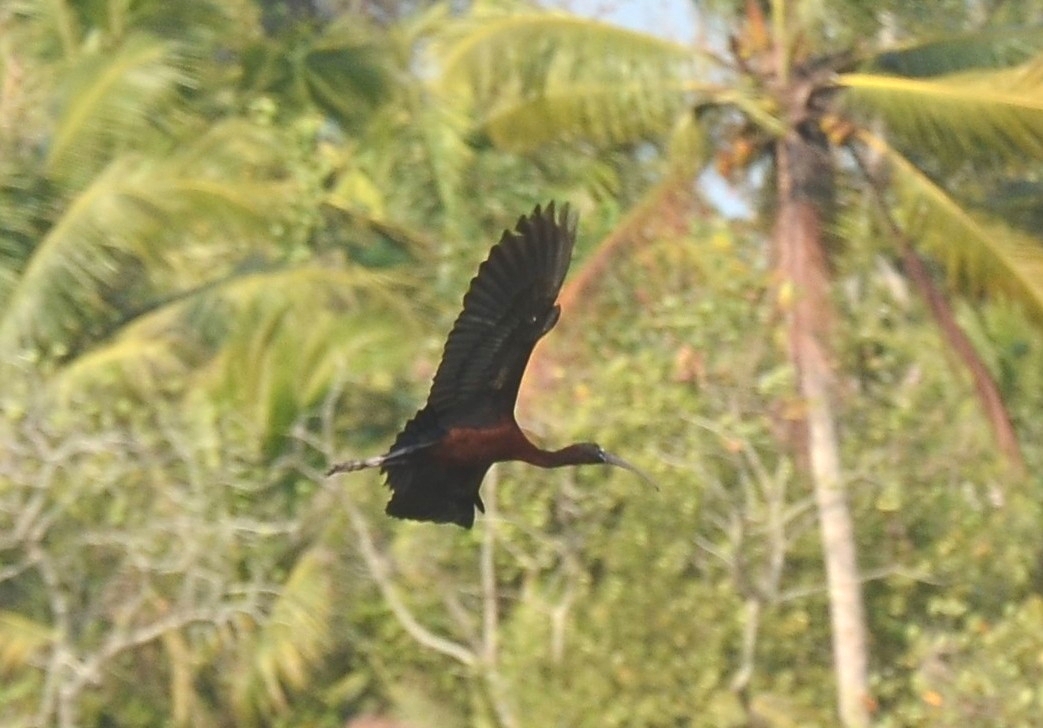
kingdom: Animalia
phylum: Chordata
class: Aves
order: Pelecaniformes
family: Threskiornithidae
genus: Plegadis
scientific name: Plegadis falcinellus
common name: Glossy ibis
